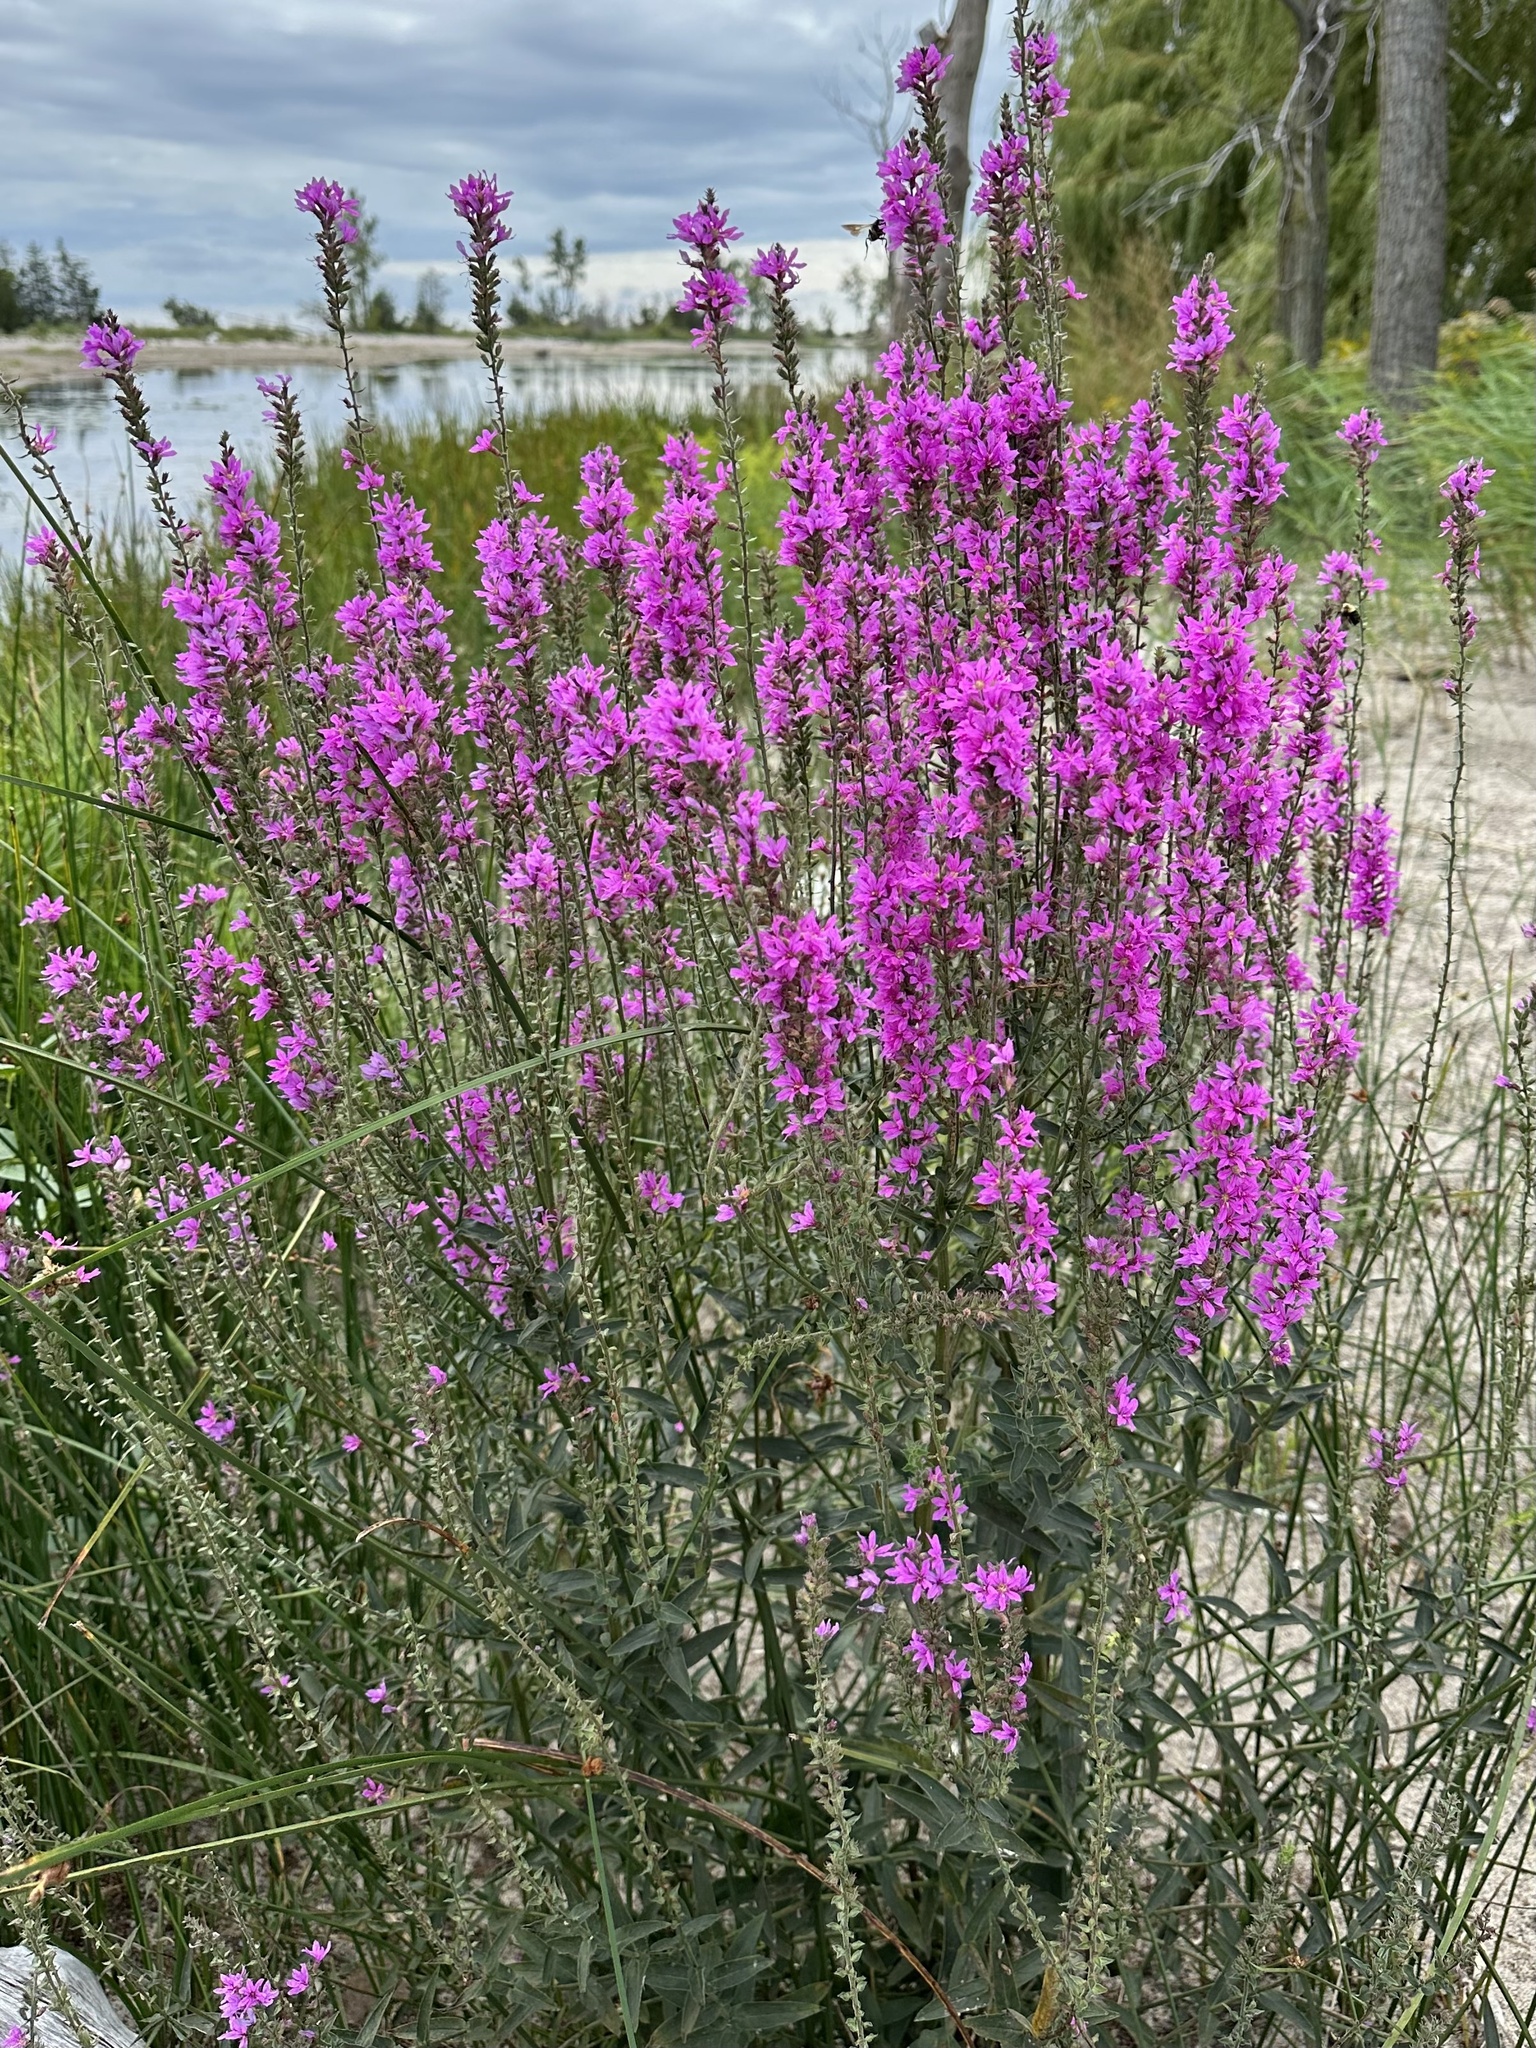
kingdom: Plantae
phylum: Tracheophyta
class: Magnoliopsida
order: Myrtales
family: Lythraceae
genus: Lythrum
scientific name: Lythrum salicaria
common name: Purple loosestrife
